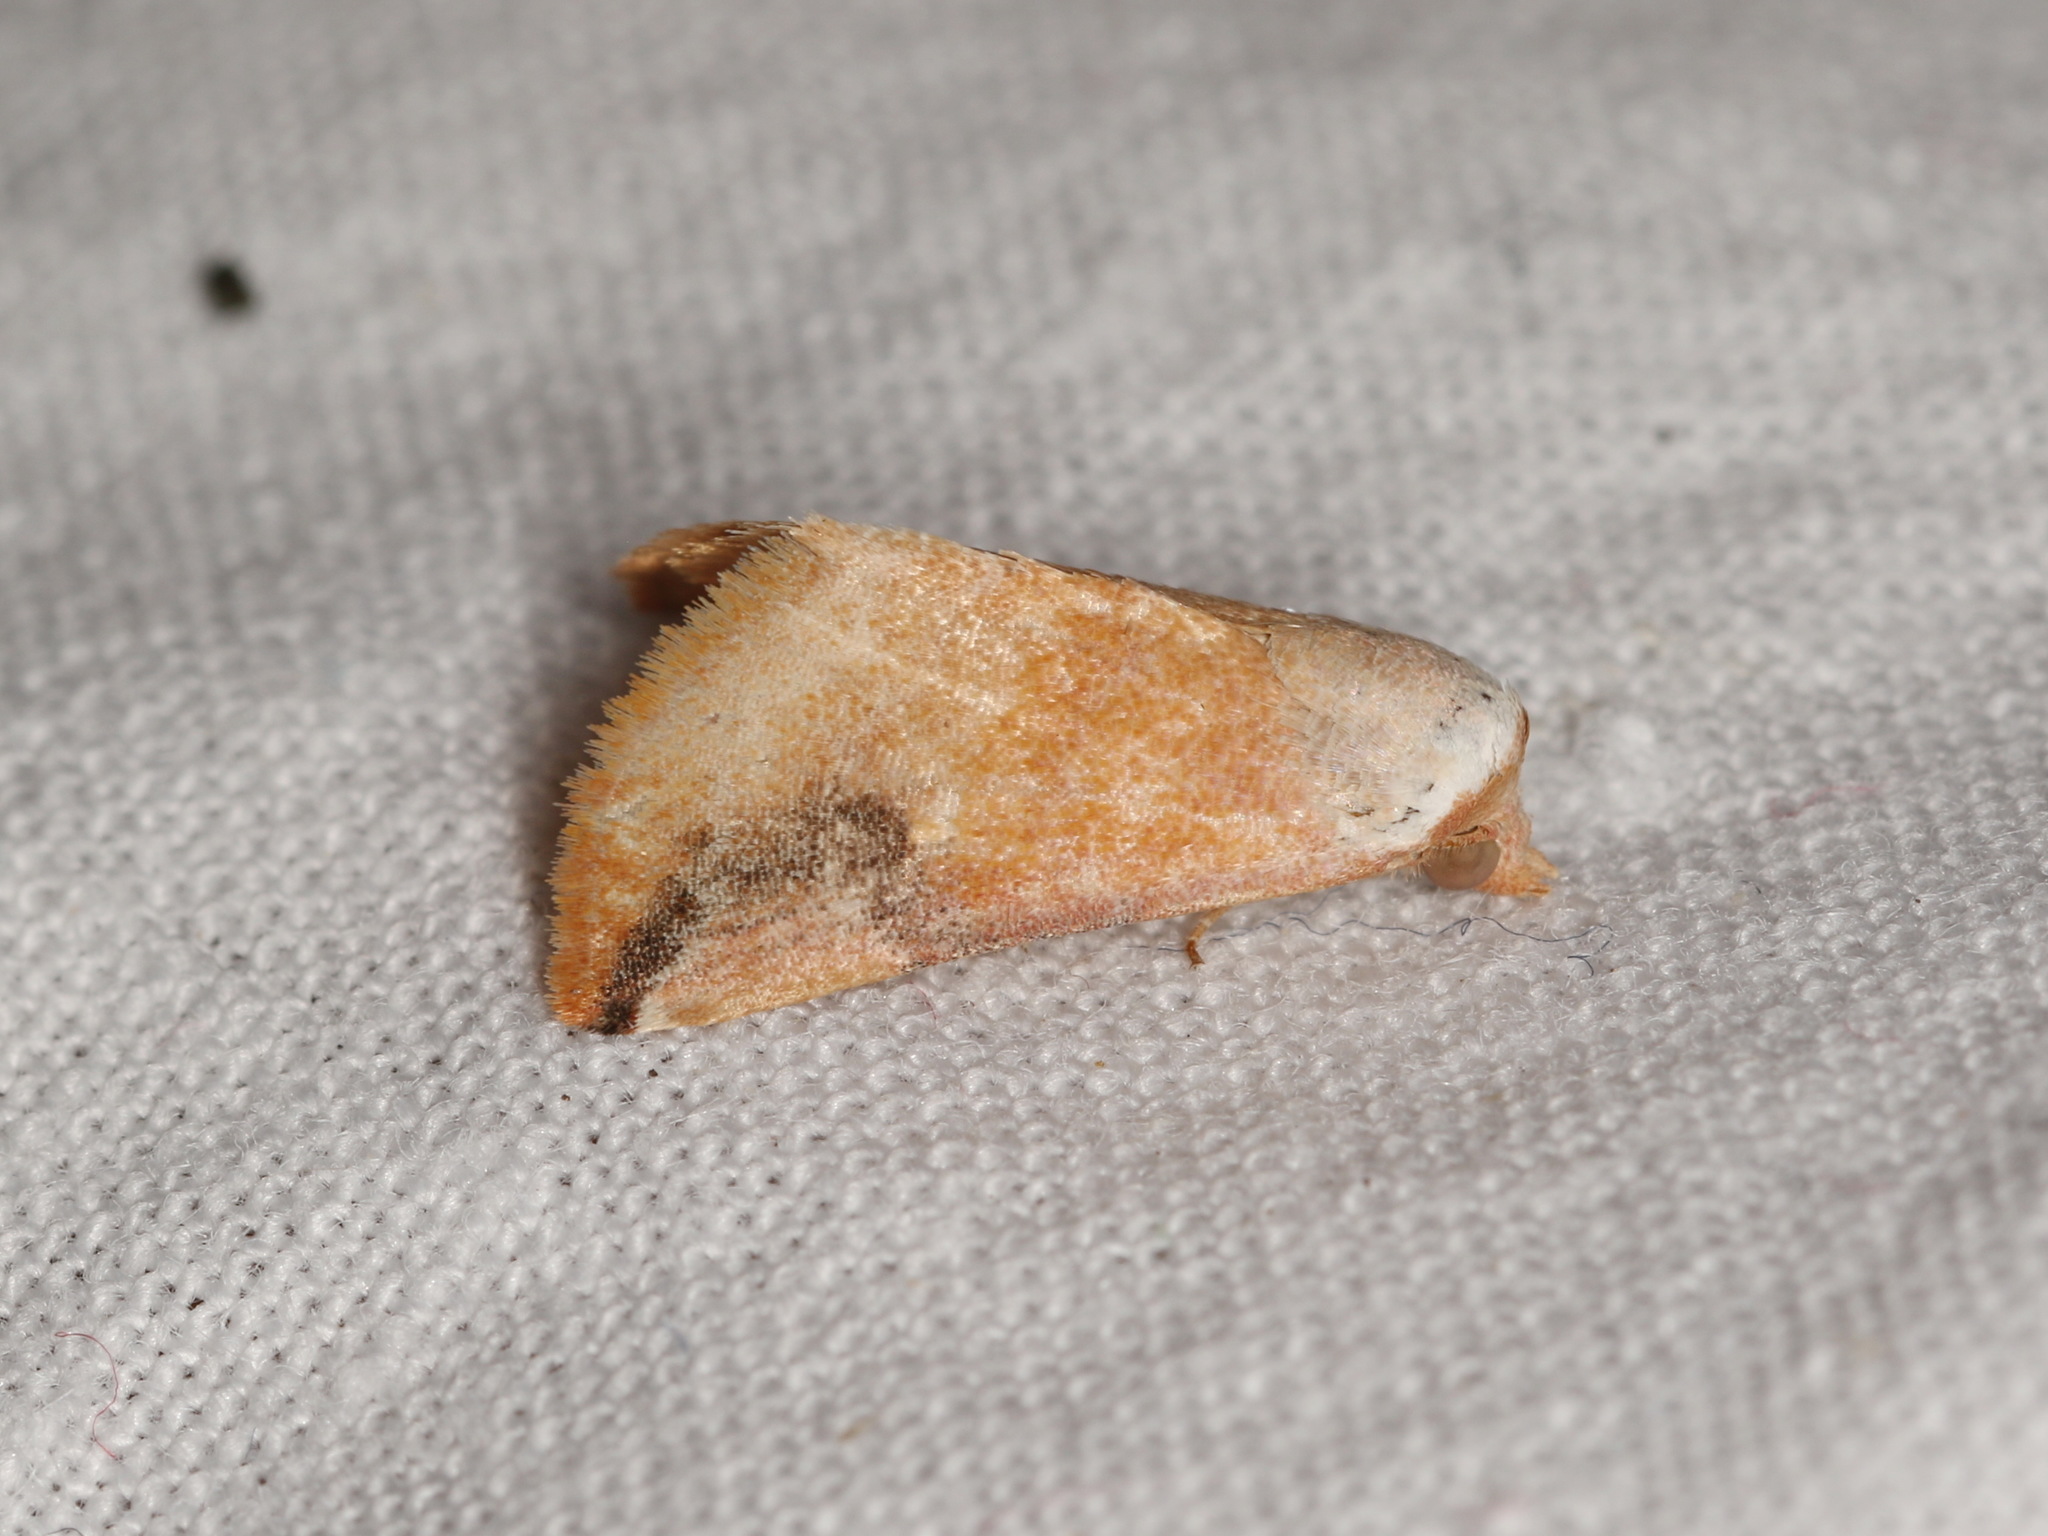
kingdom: Animalia
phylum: Arthropoda
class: Insecta
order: Lepidoptera
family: Noctuidae
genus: Mataeomera
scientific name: Mataeomera dubia
